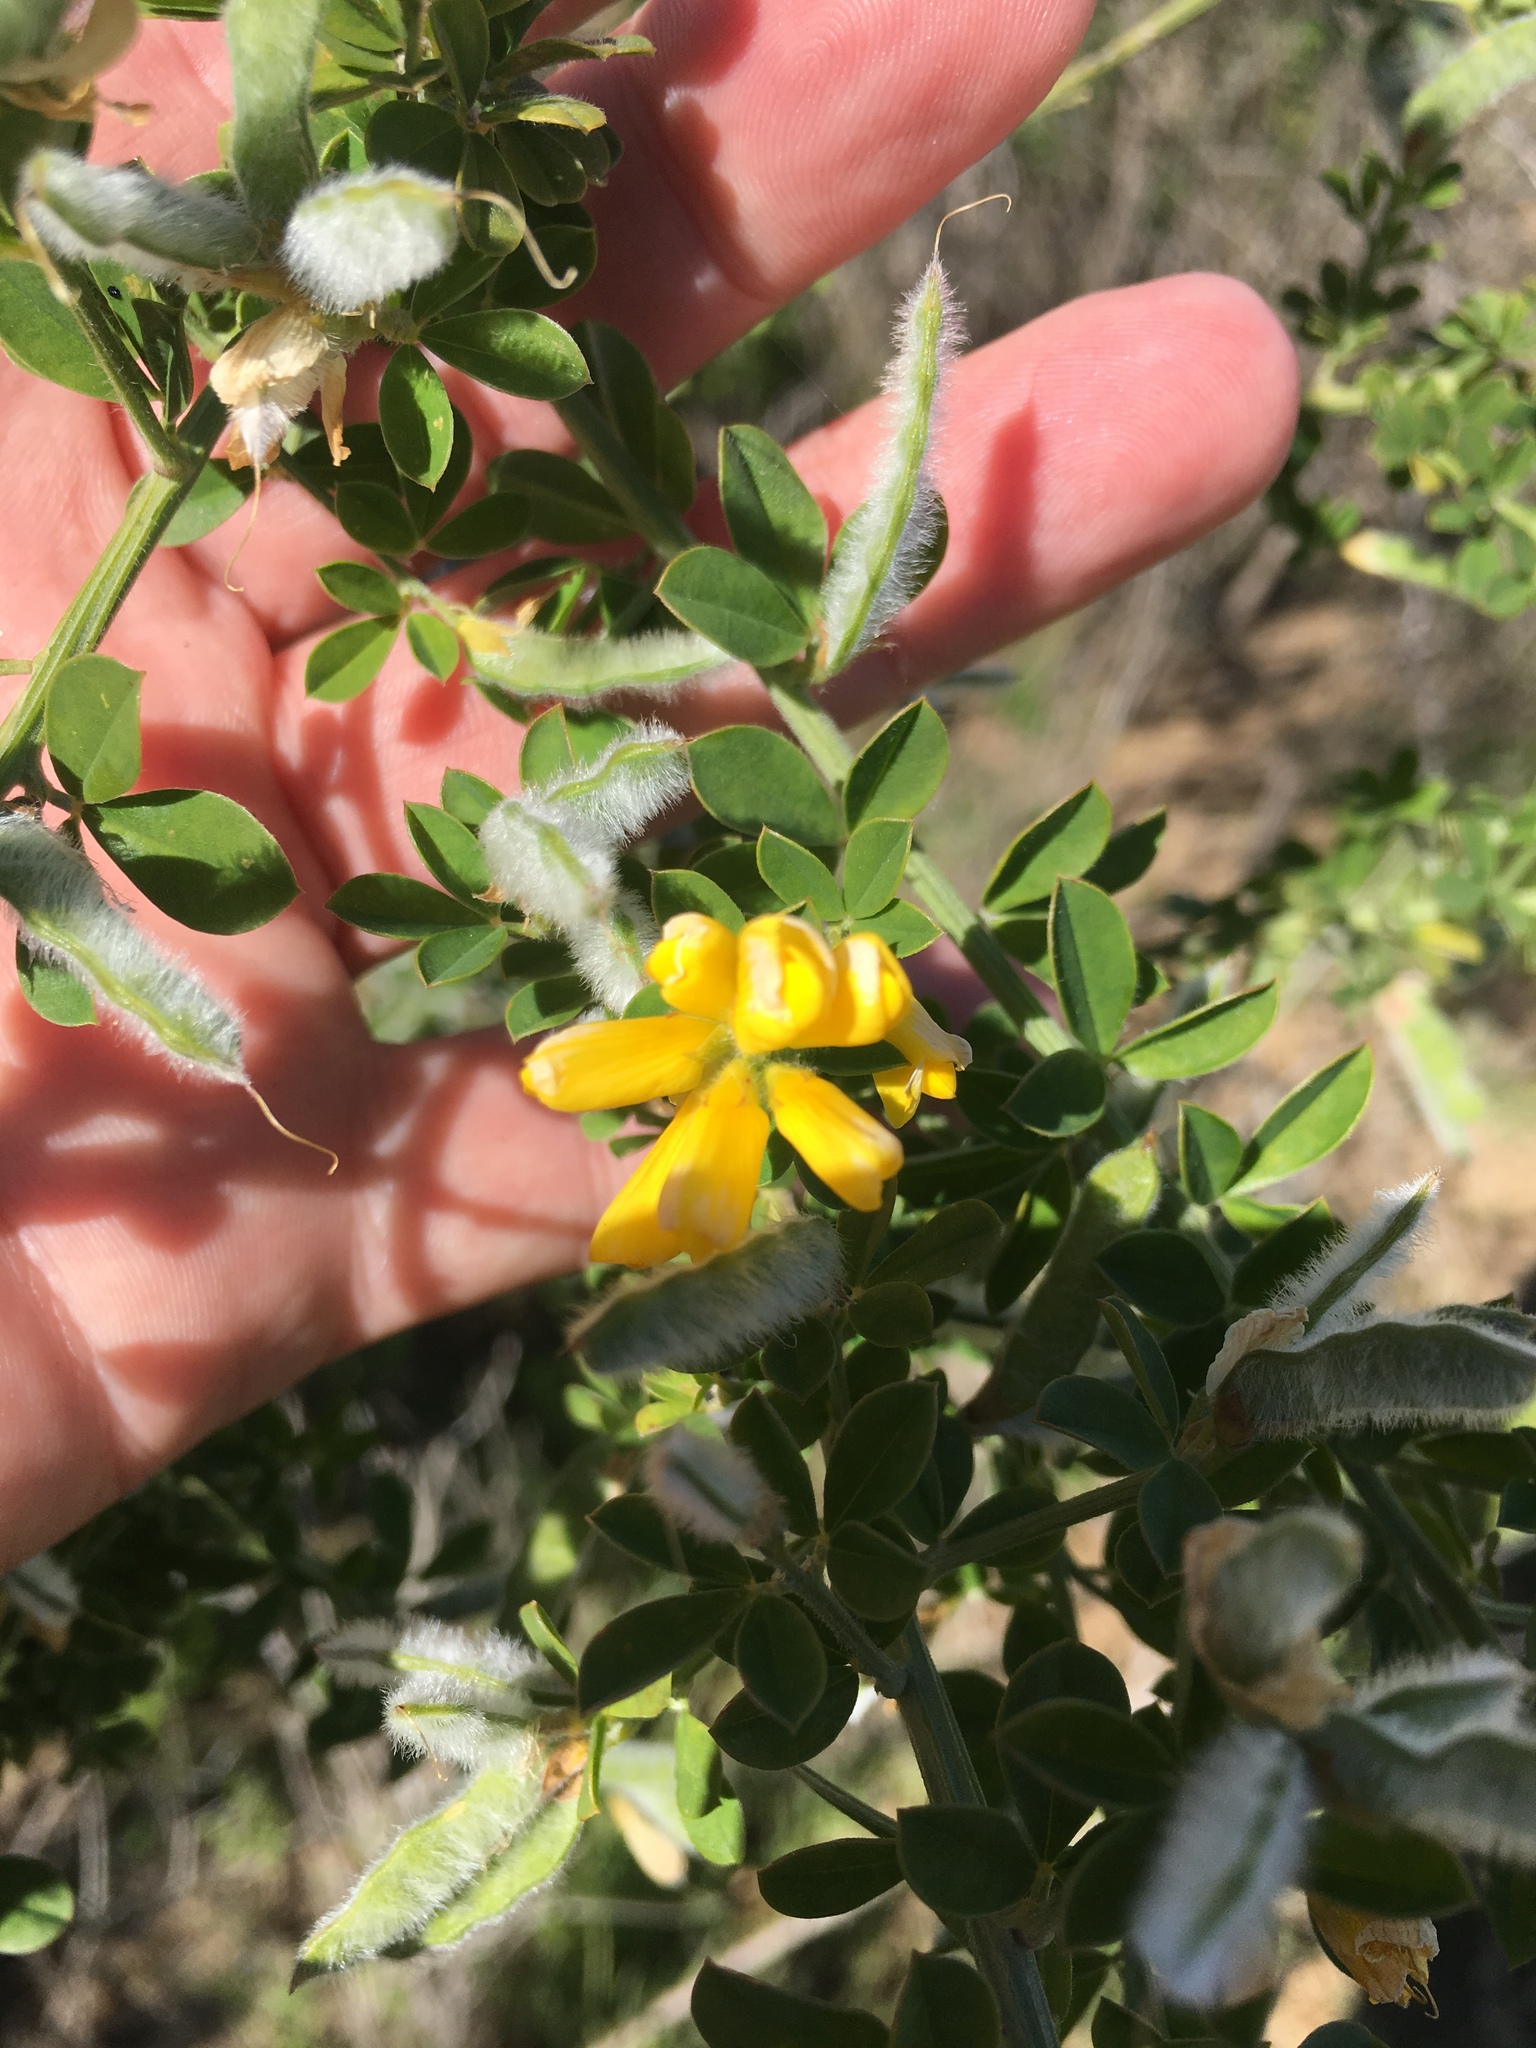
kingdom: Plantae
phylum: Tracheophyta
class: Magnoliopsida
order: Fabales
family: Fabaceae
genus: Genista
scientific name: Genista monspessulana
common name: Montpellier broom
